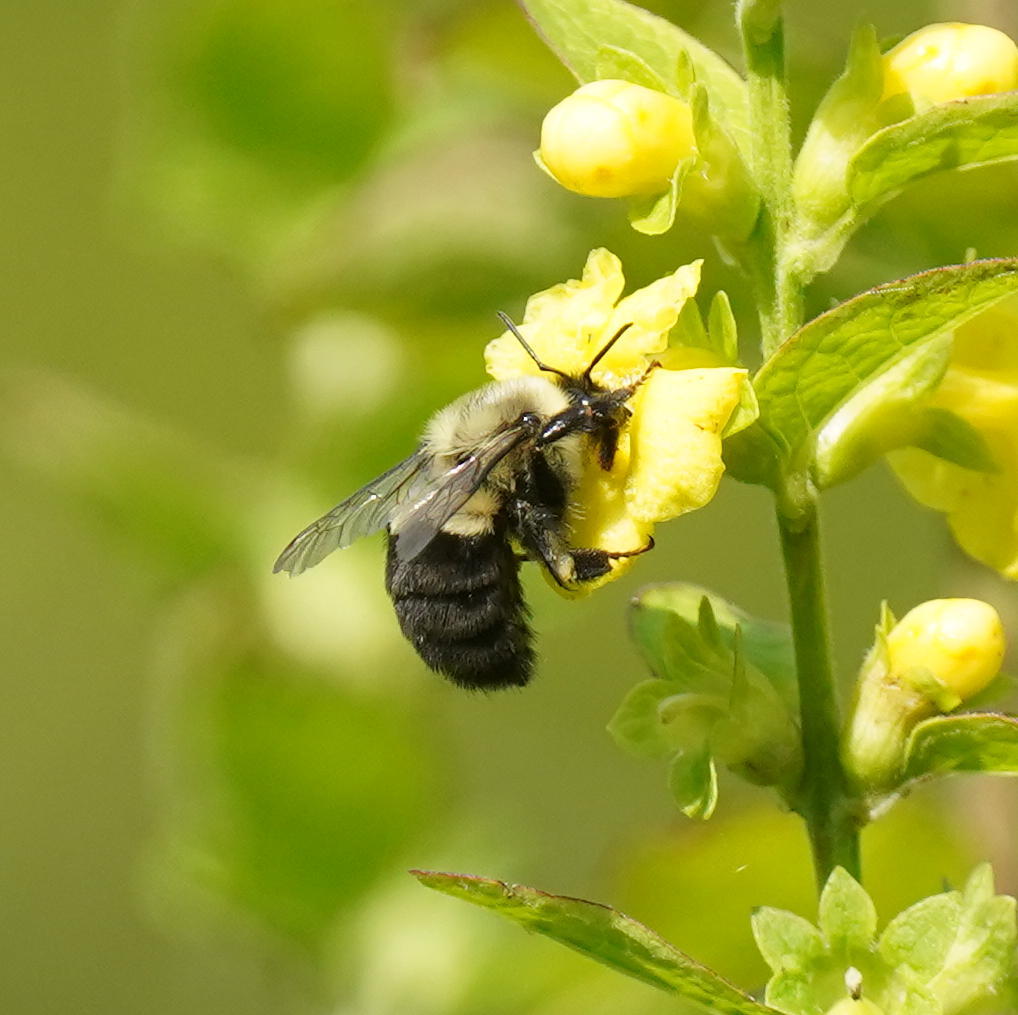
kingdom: Animalia
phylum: Arthropoda
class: Insecta
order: Hymenoptera
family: Apidae
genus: Bombus
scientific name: Bombus impatiens
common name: Common eastern bumble bee
